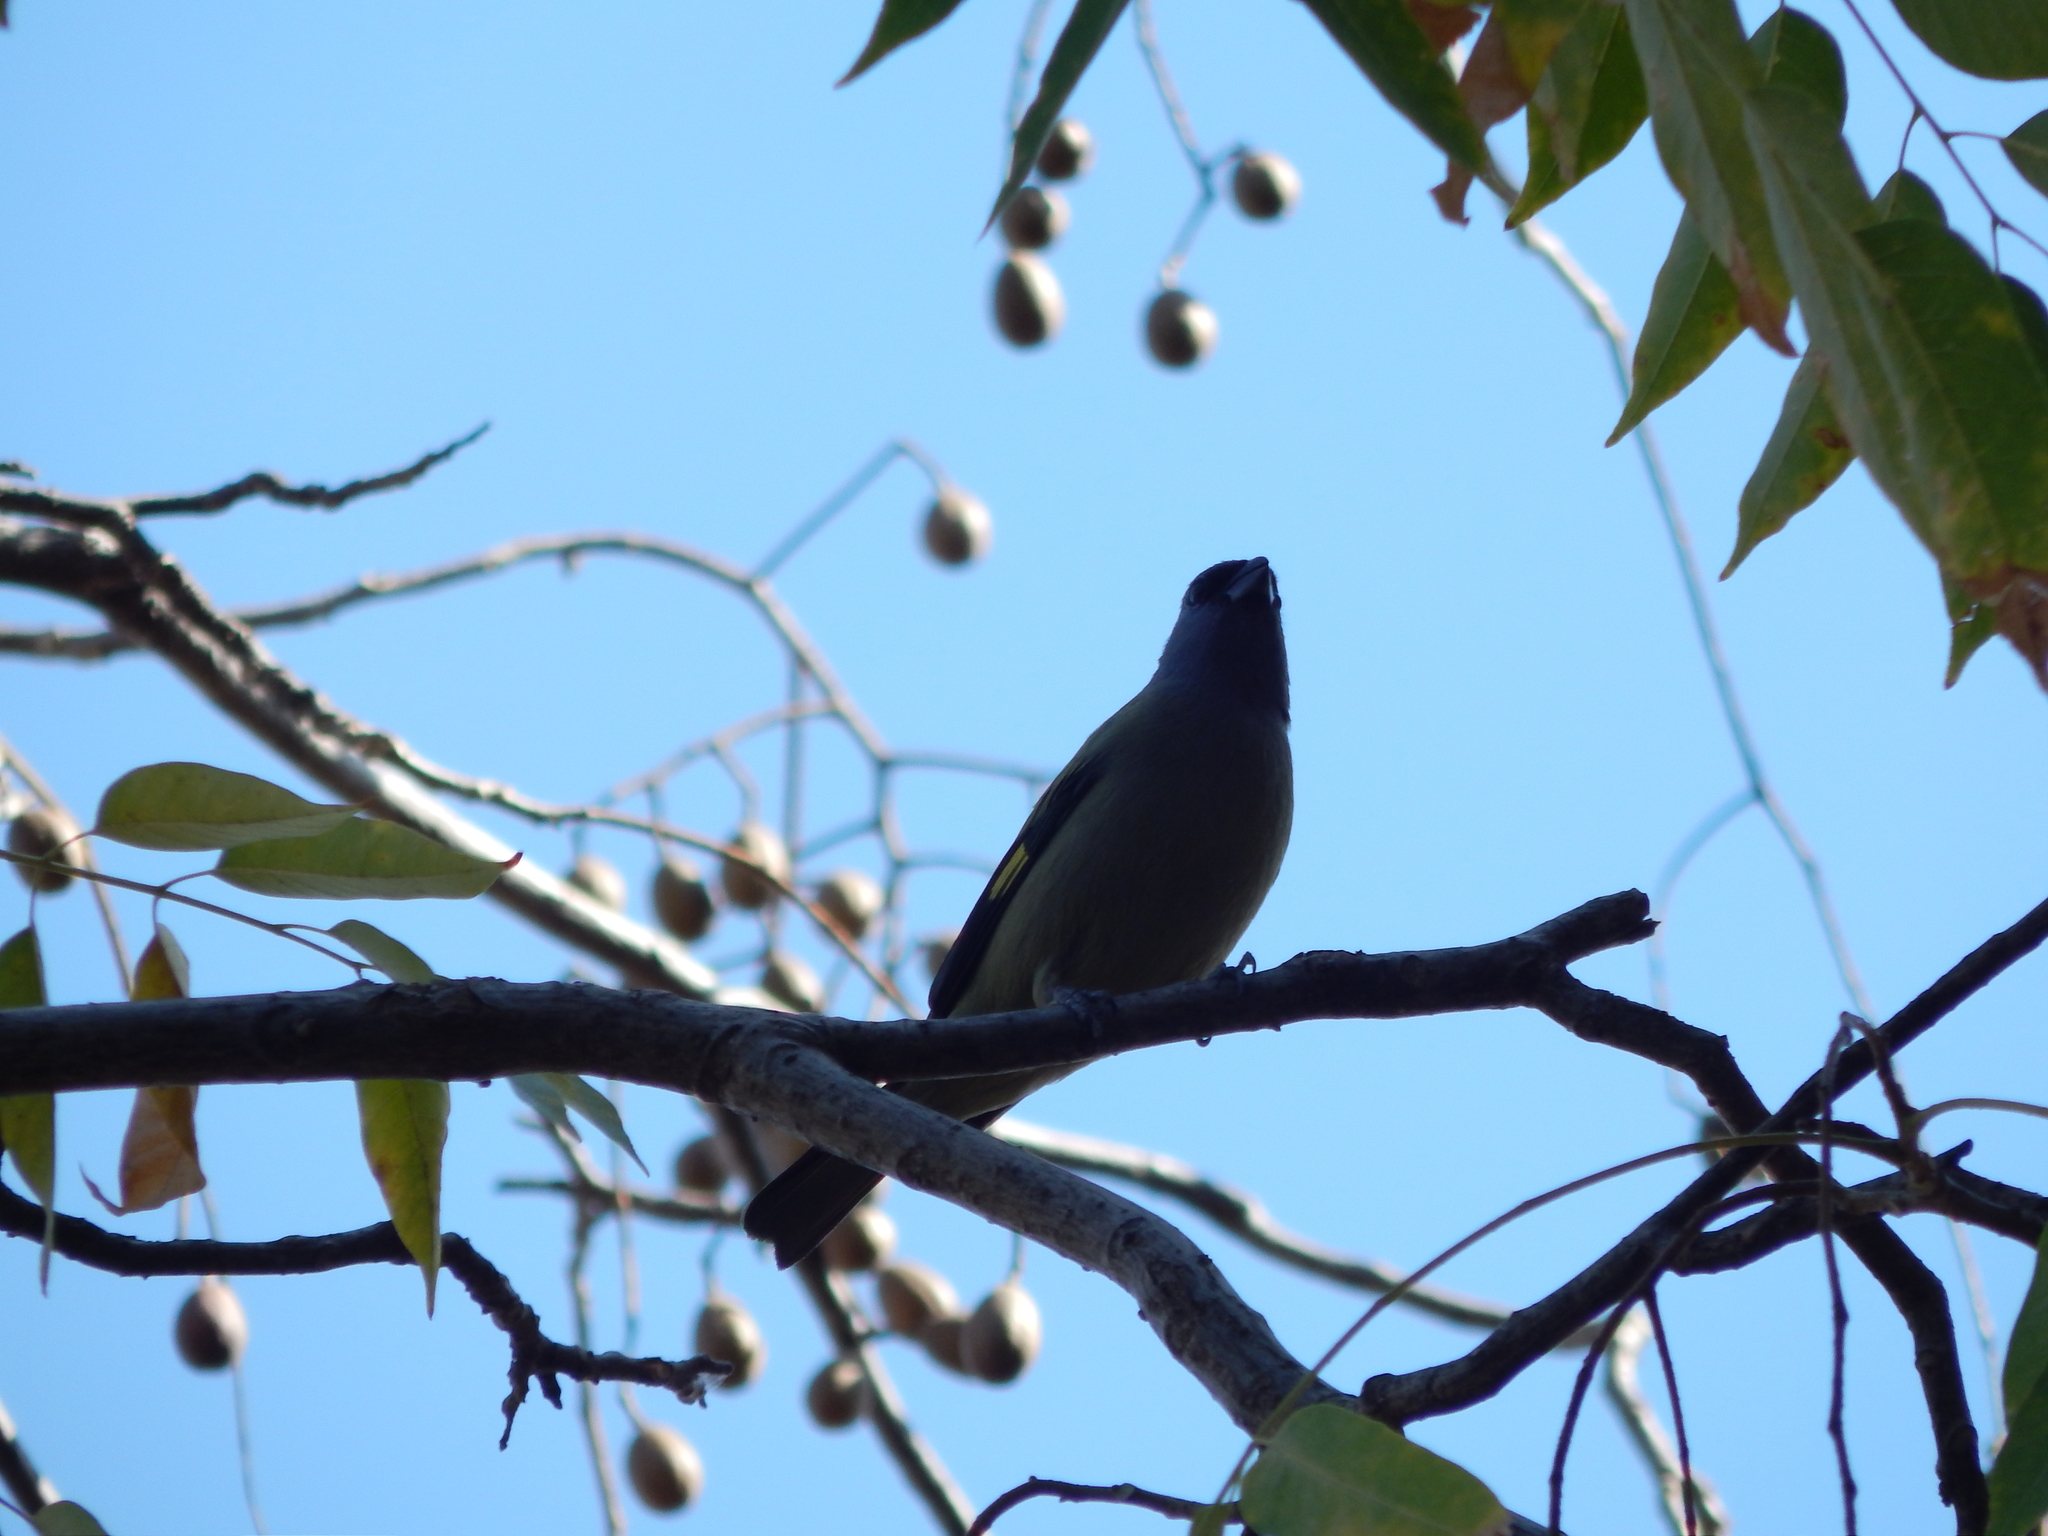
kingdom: Animalia
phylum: Chordata
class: Aves
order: Passeriformes
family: Thraupidae
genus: Thraupis
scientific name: Thraupis abbas
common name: Yellow-winged tanager
